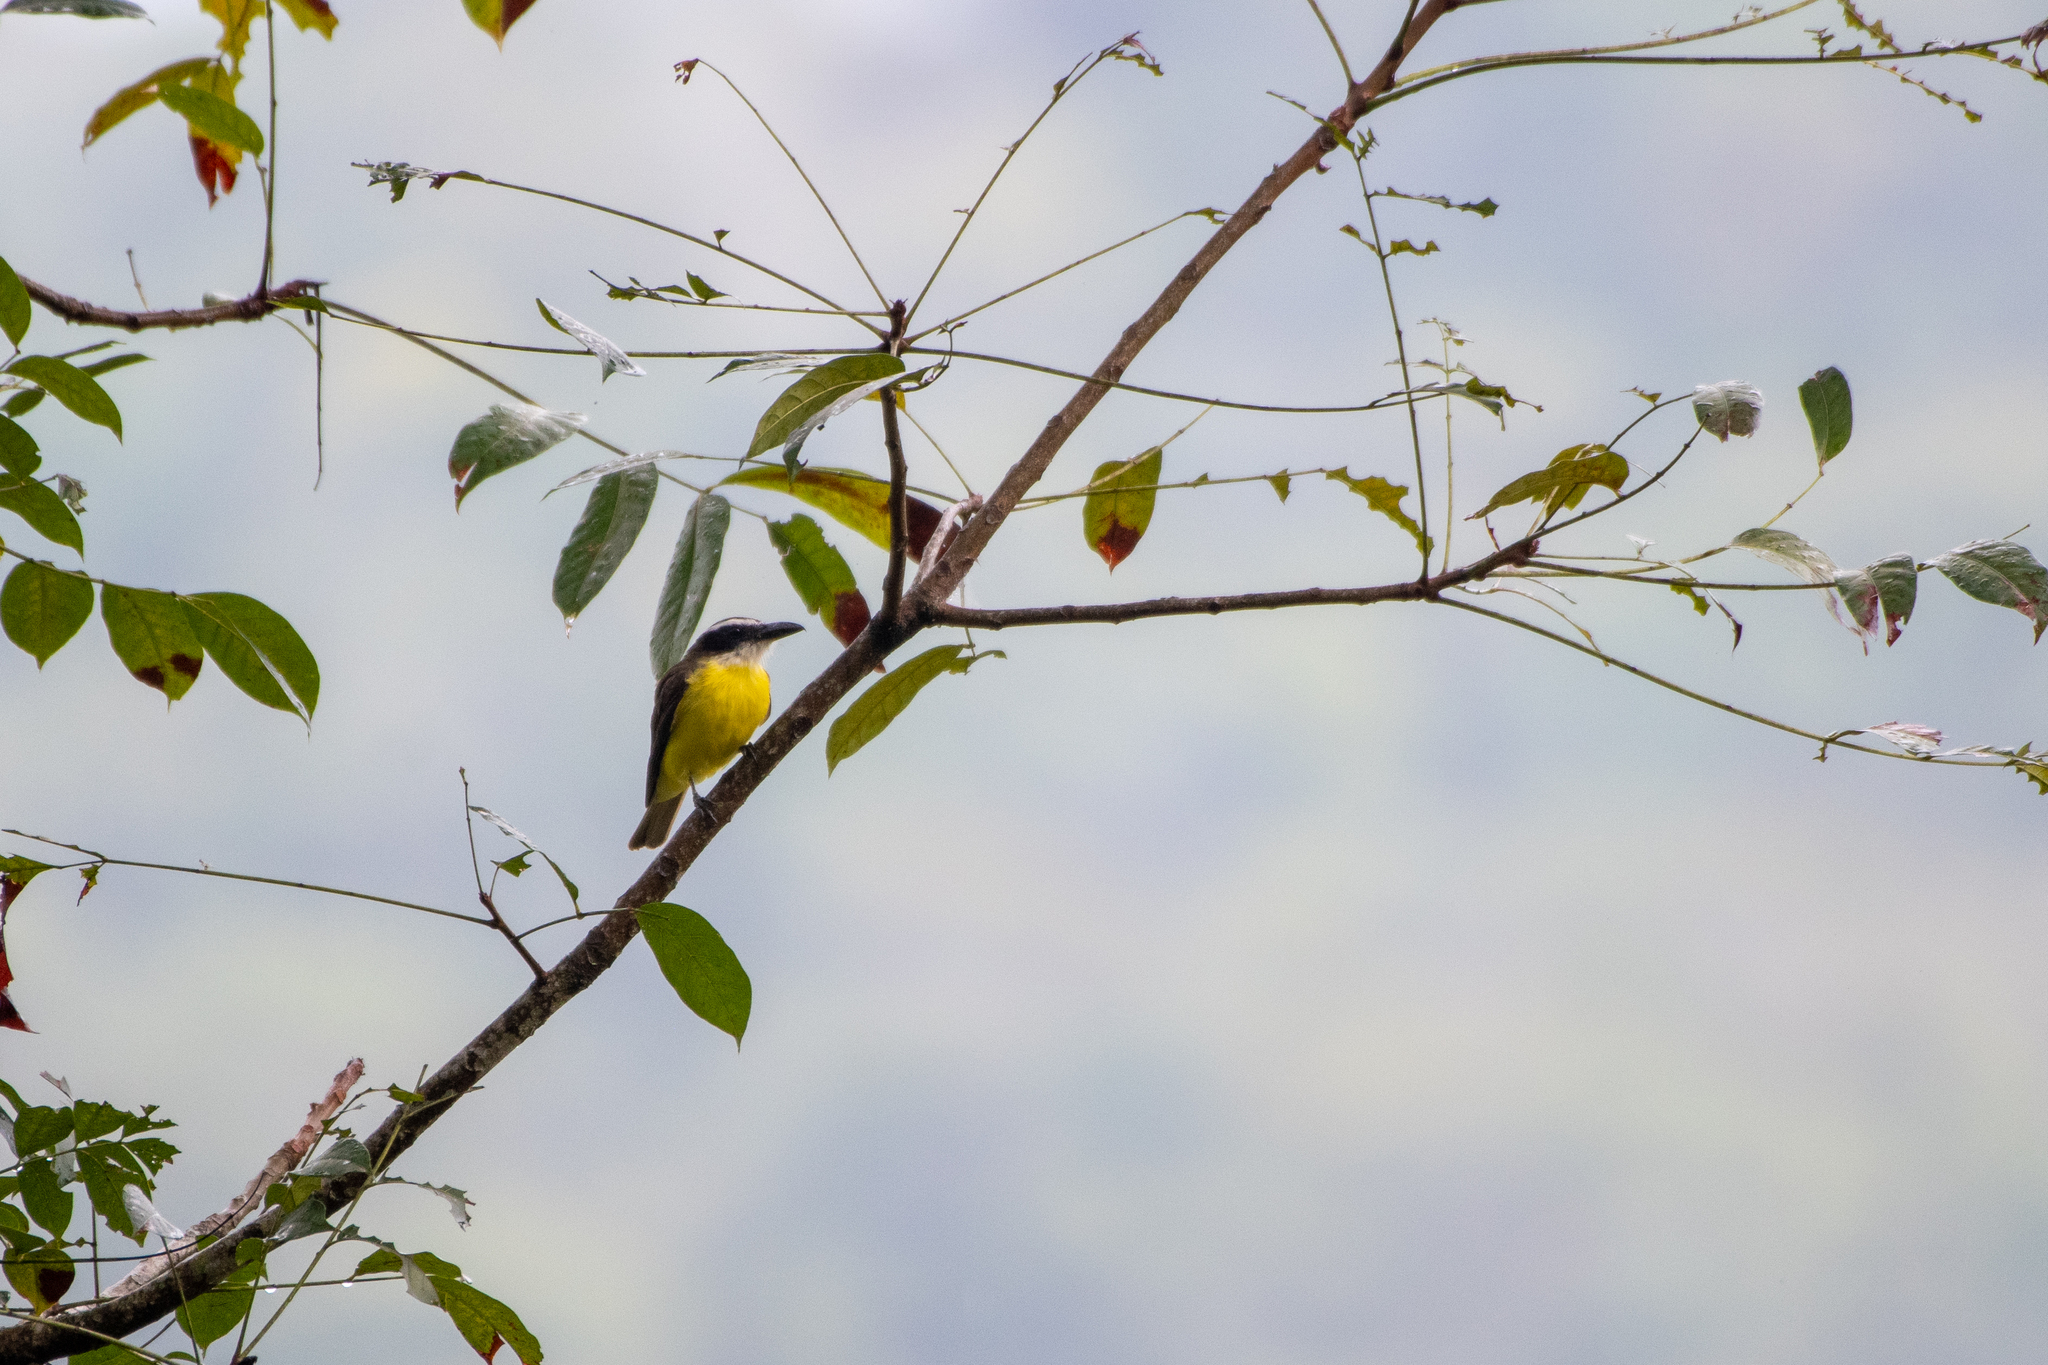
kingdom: Animalia
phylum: Chordata
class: Aves
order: Passeriformes
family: Tyrannidae
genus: Megarynchus
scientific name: Megarynchus pitangua
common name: Boat-billed flycatcher
